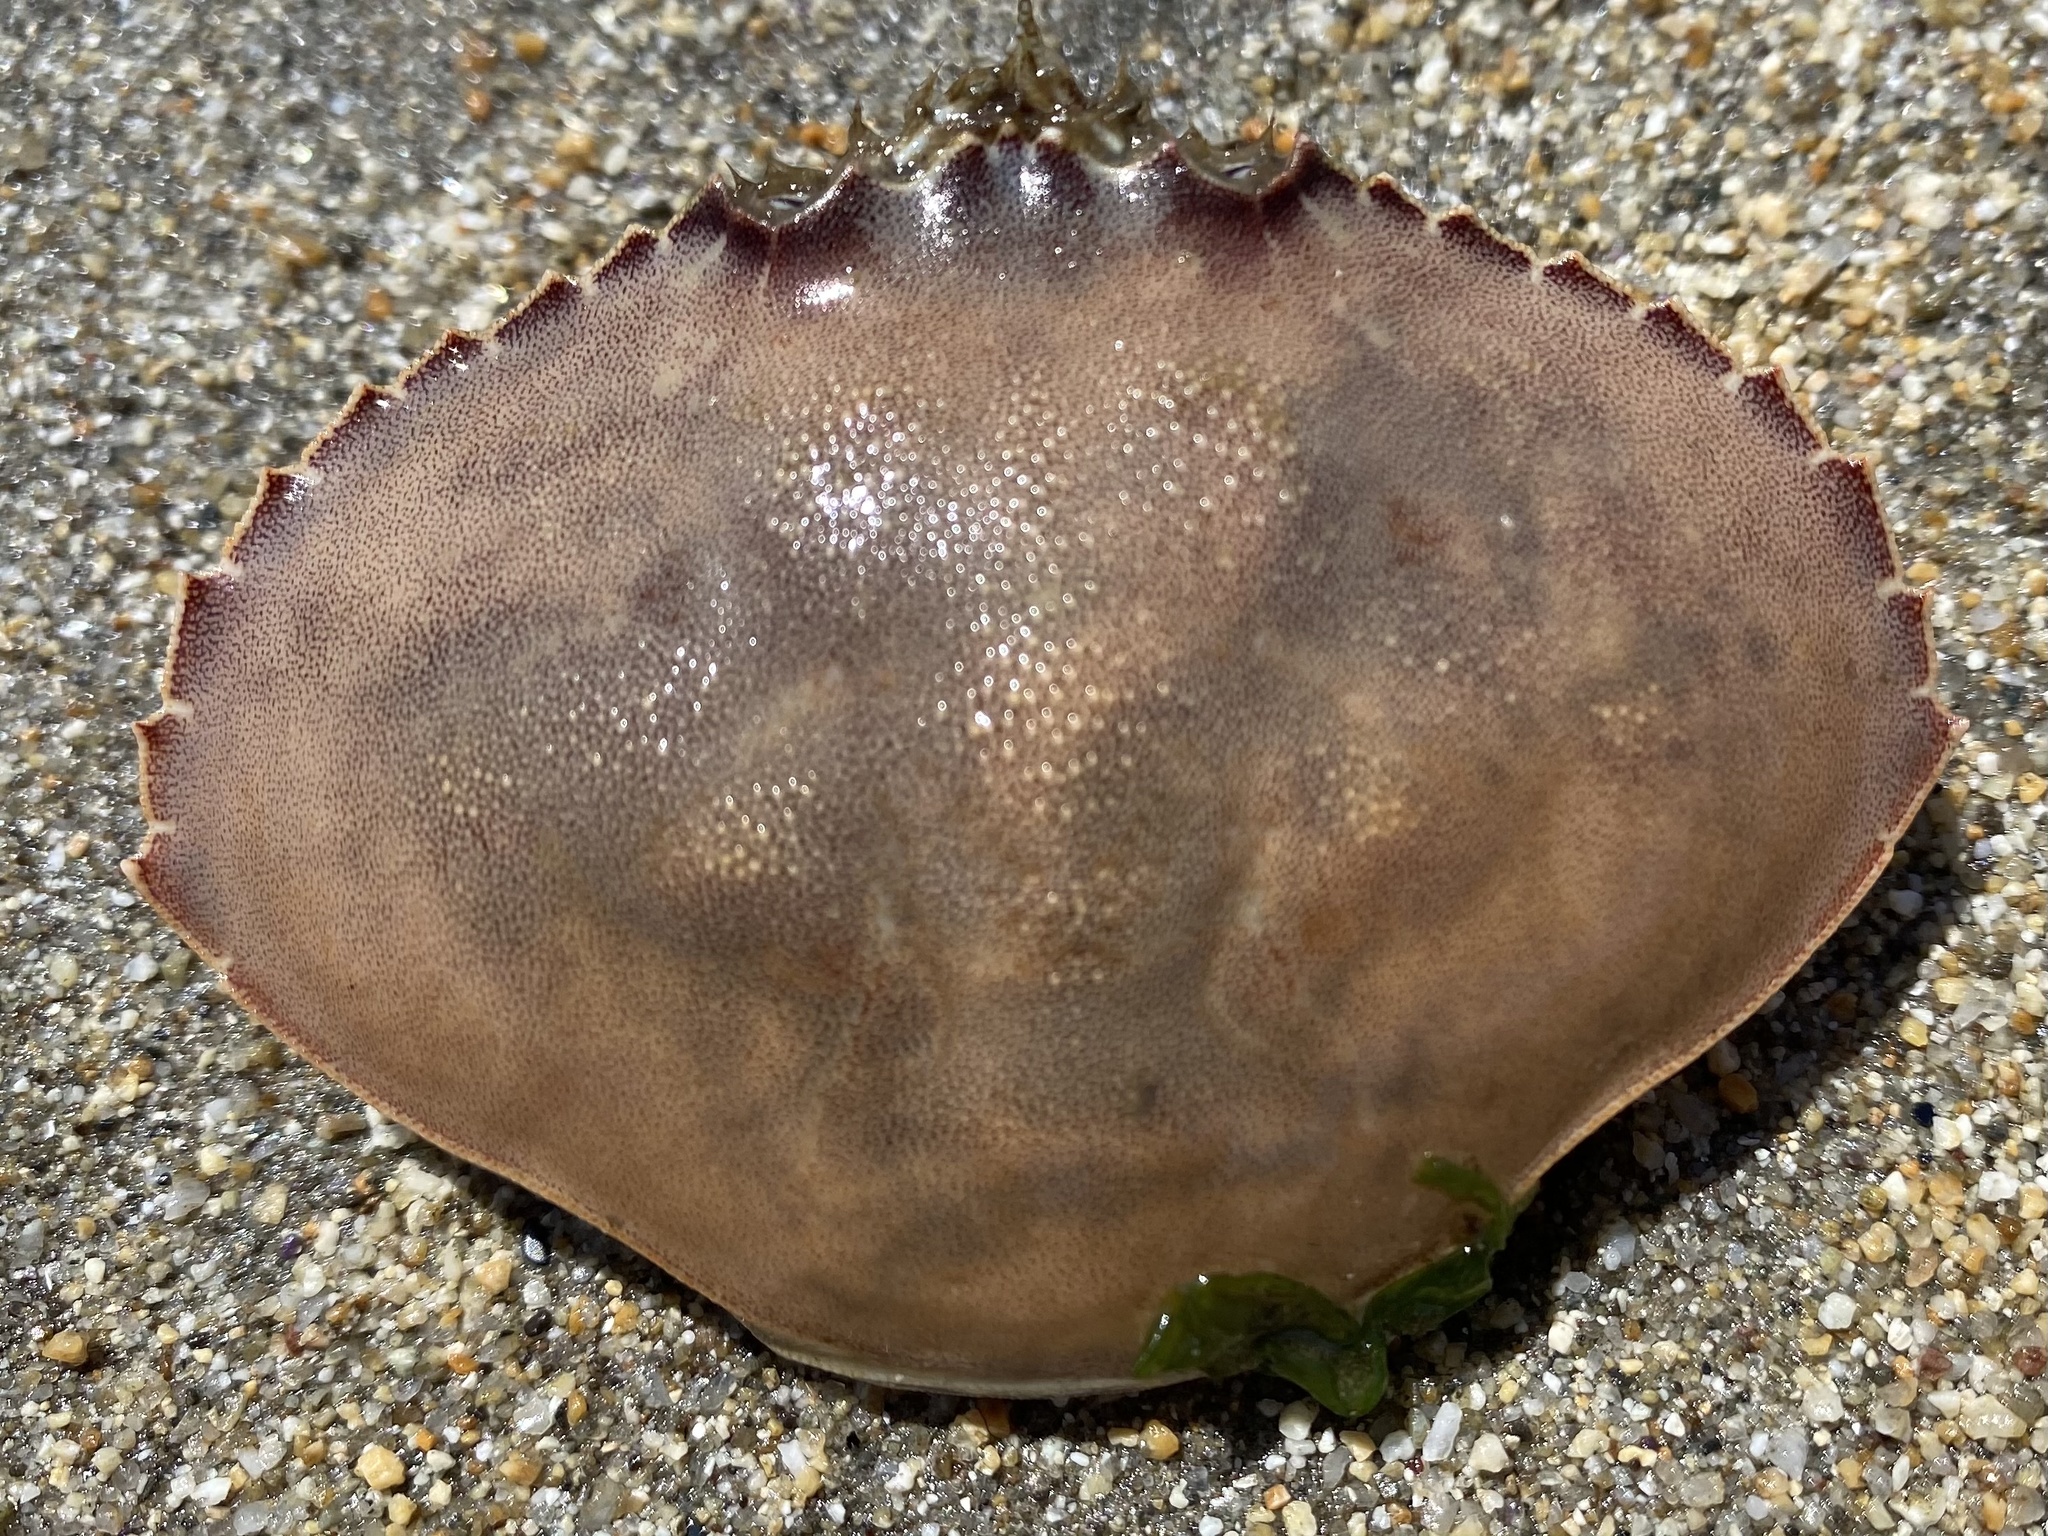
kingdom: Animalia
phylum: Arthropoda
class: Malacostraca
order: Decapoda
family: Cancridae
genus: Metacarcinus
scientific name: Metacarcinus gracilis
